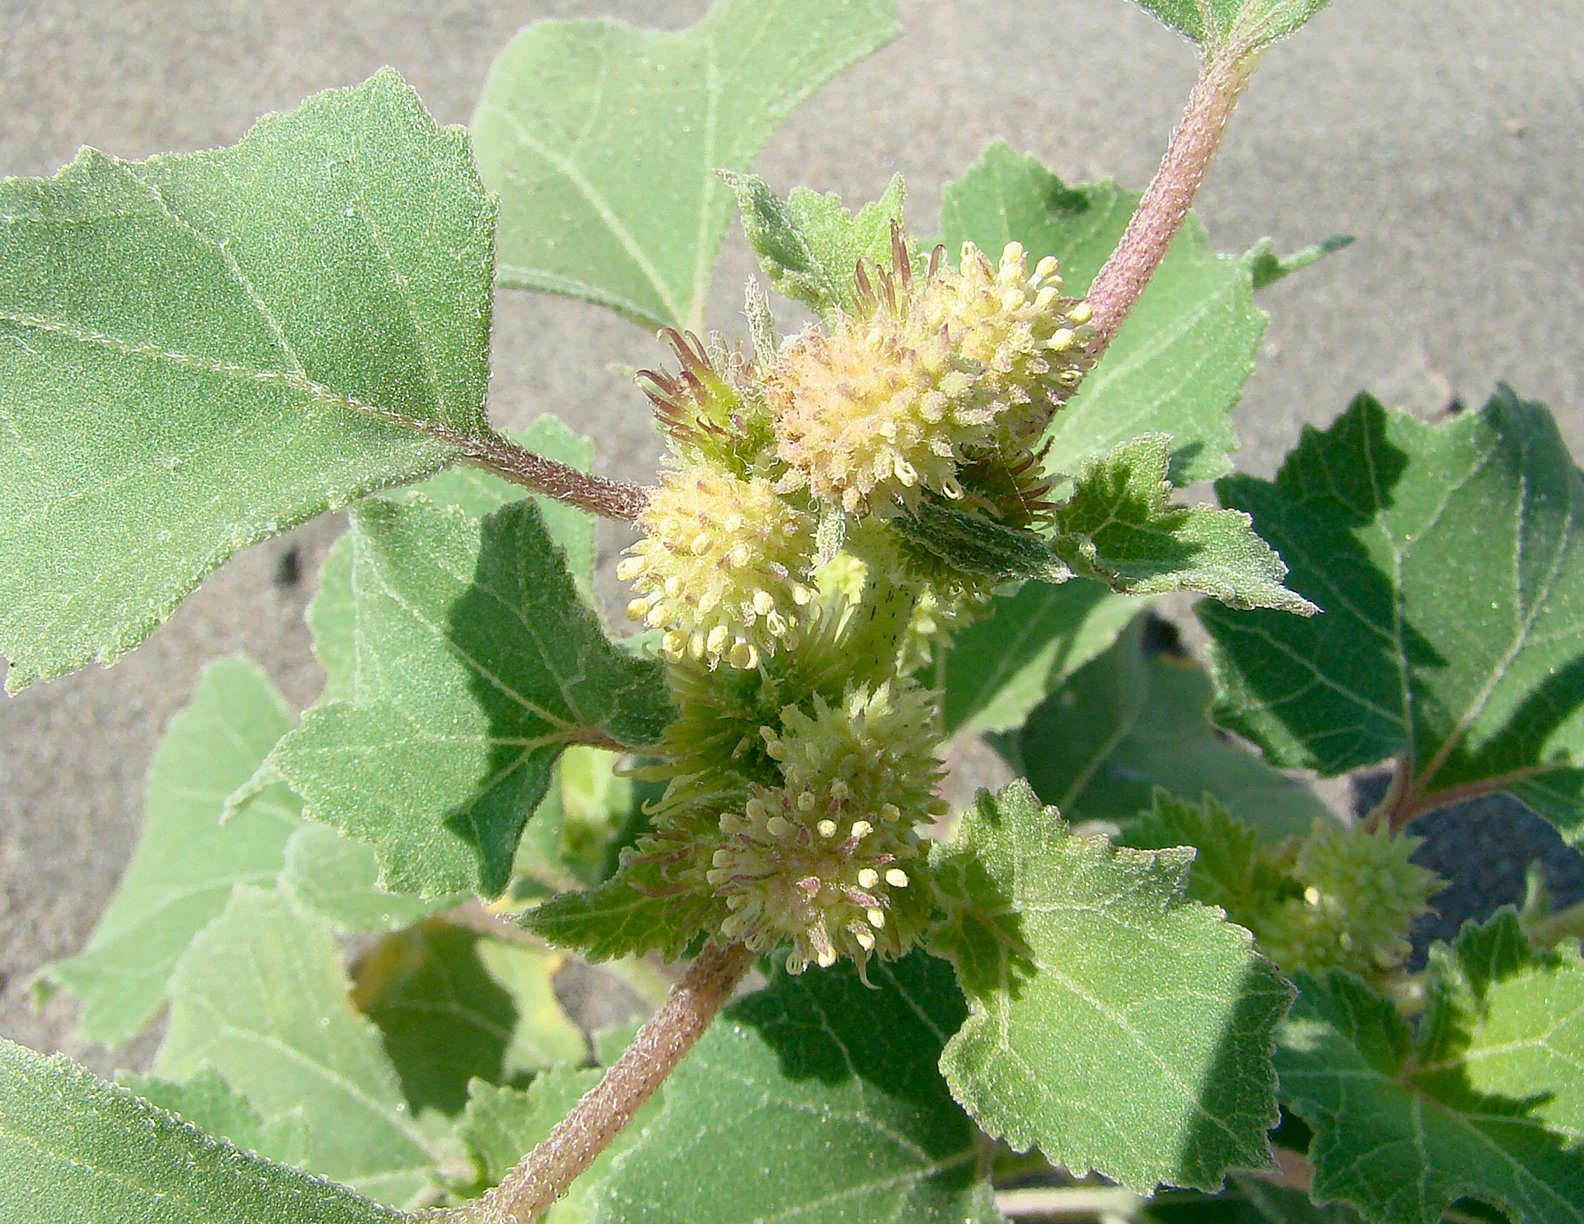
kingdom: Plantae
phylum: Tracheophyta
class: Magnoliopsida
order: Asterales
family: Asteraceae
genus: Xanthium
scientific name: Xanthium strumarium
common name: Rough cocklebur
